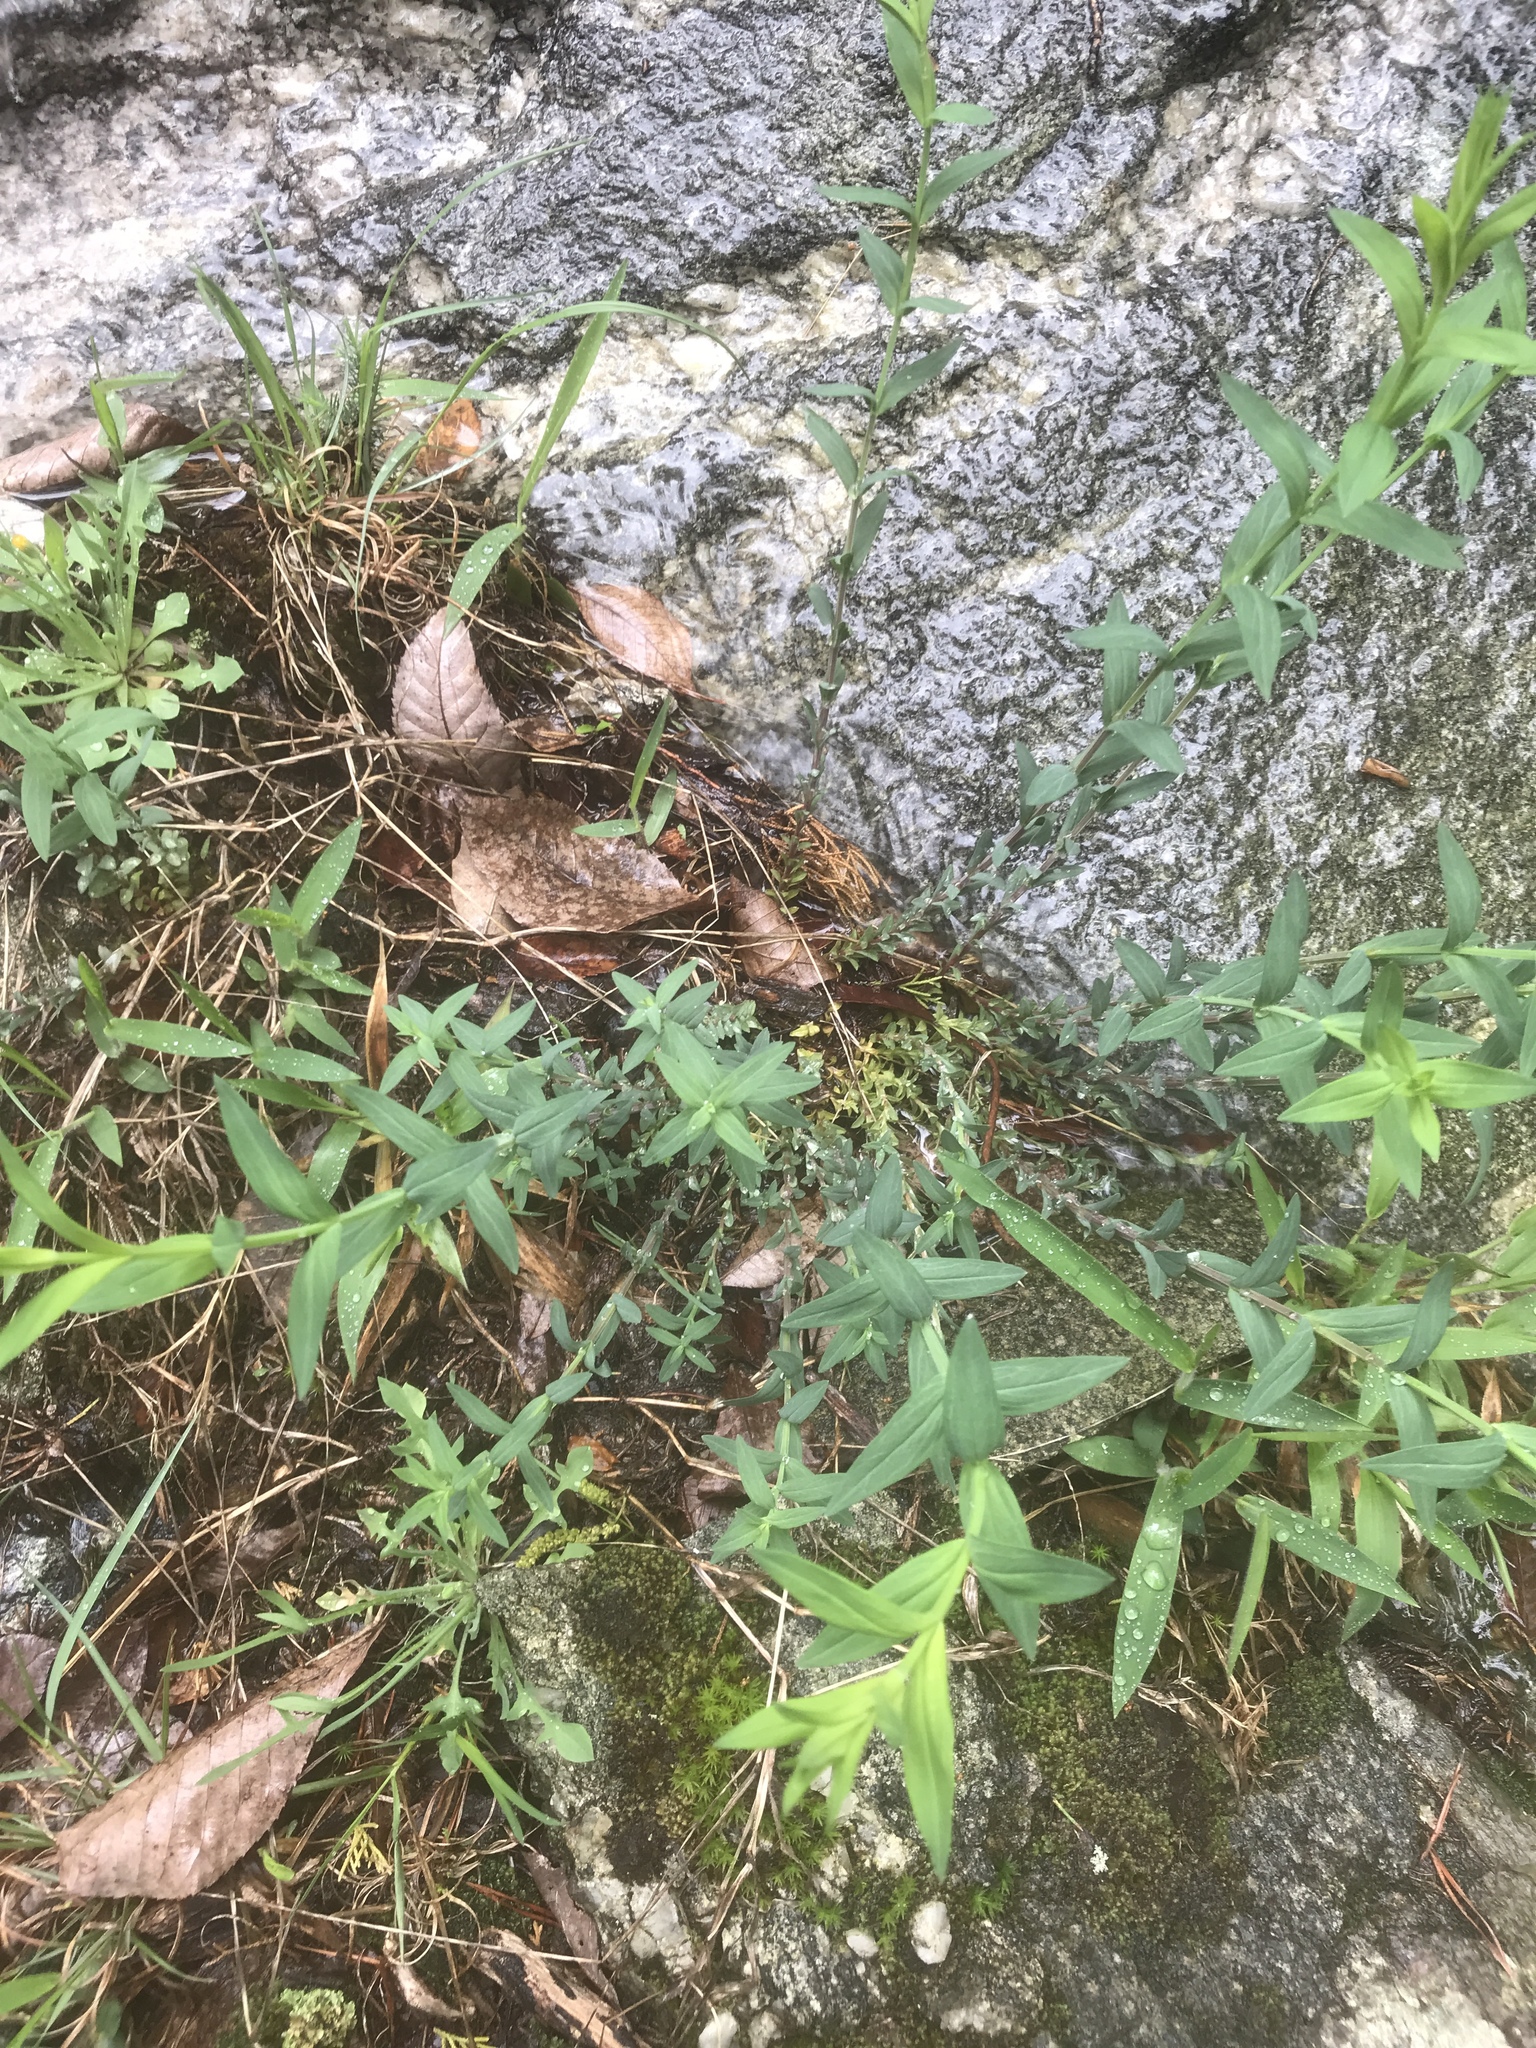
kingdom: Plantae
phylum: Tracheophyta
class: Magnoliopsida
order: Malpighiales
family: Hypericaceae
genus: Hypericum
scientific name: Hypericum radfordiorum
